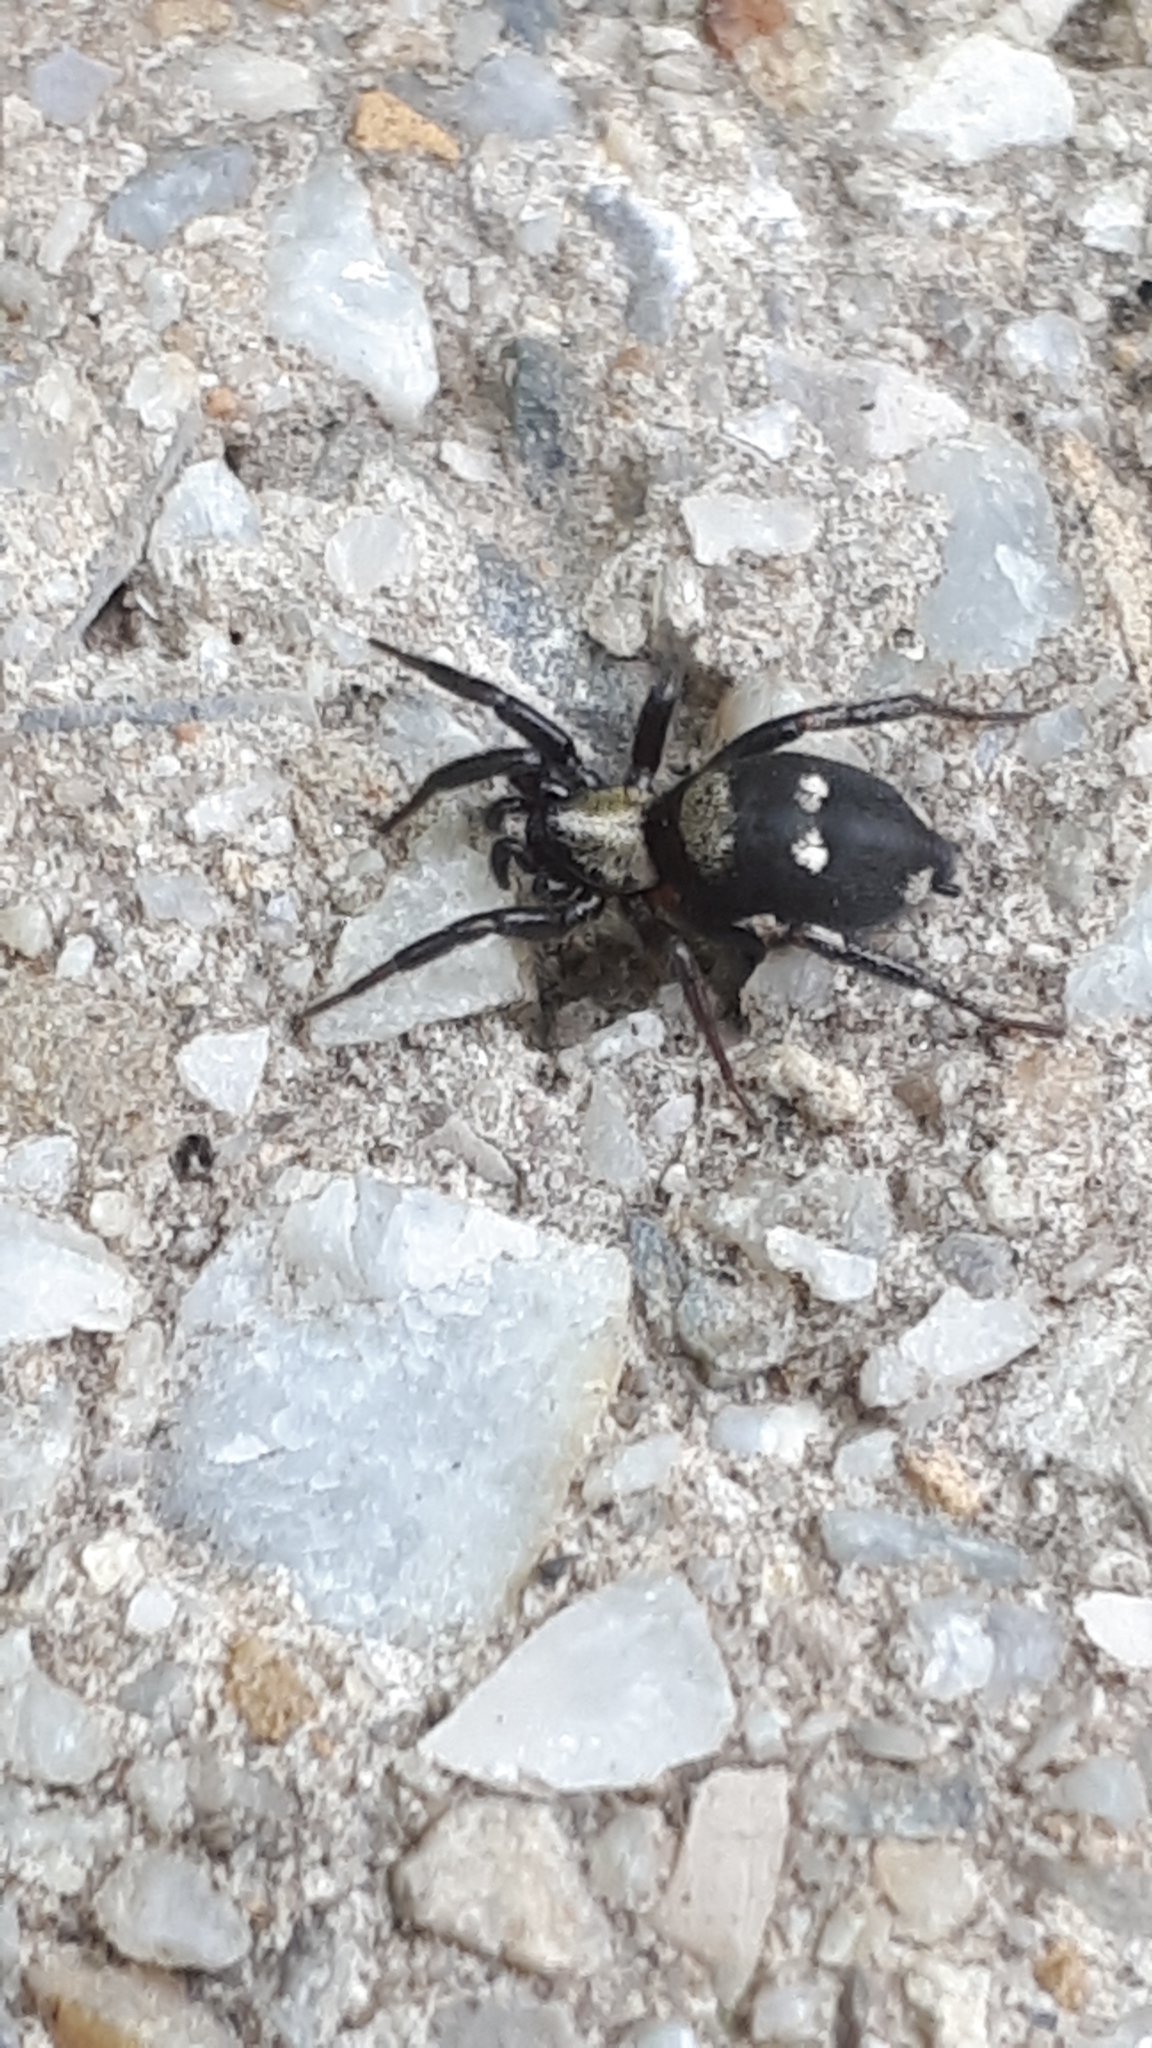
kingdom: Animalia
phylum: Arthropoda
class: Arachnida
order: Araneae
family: Gnaphosidae
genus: Callilepis
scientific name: Callilepis
